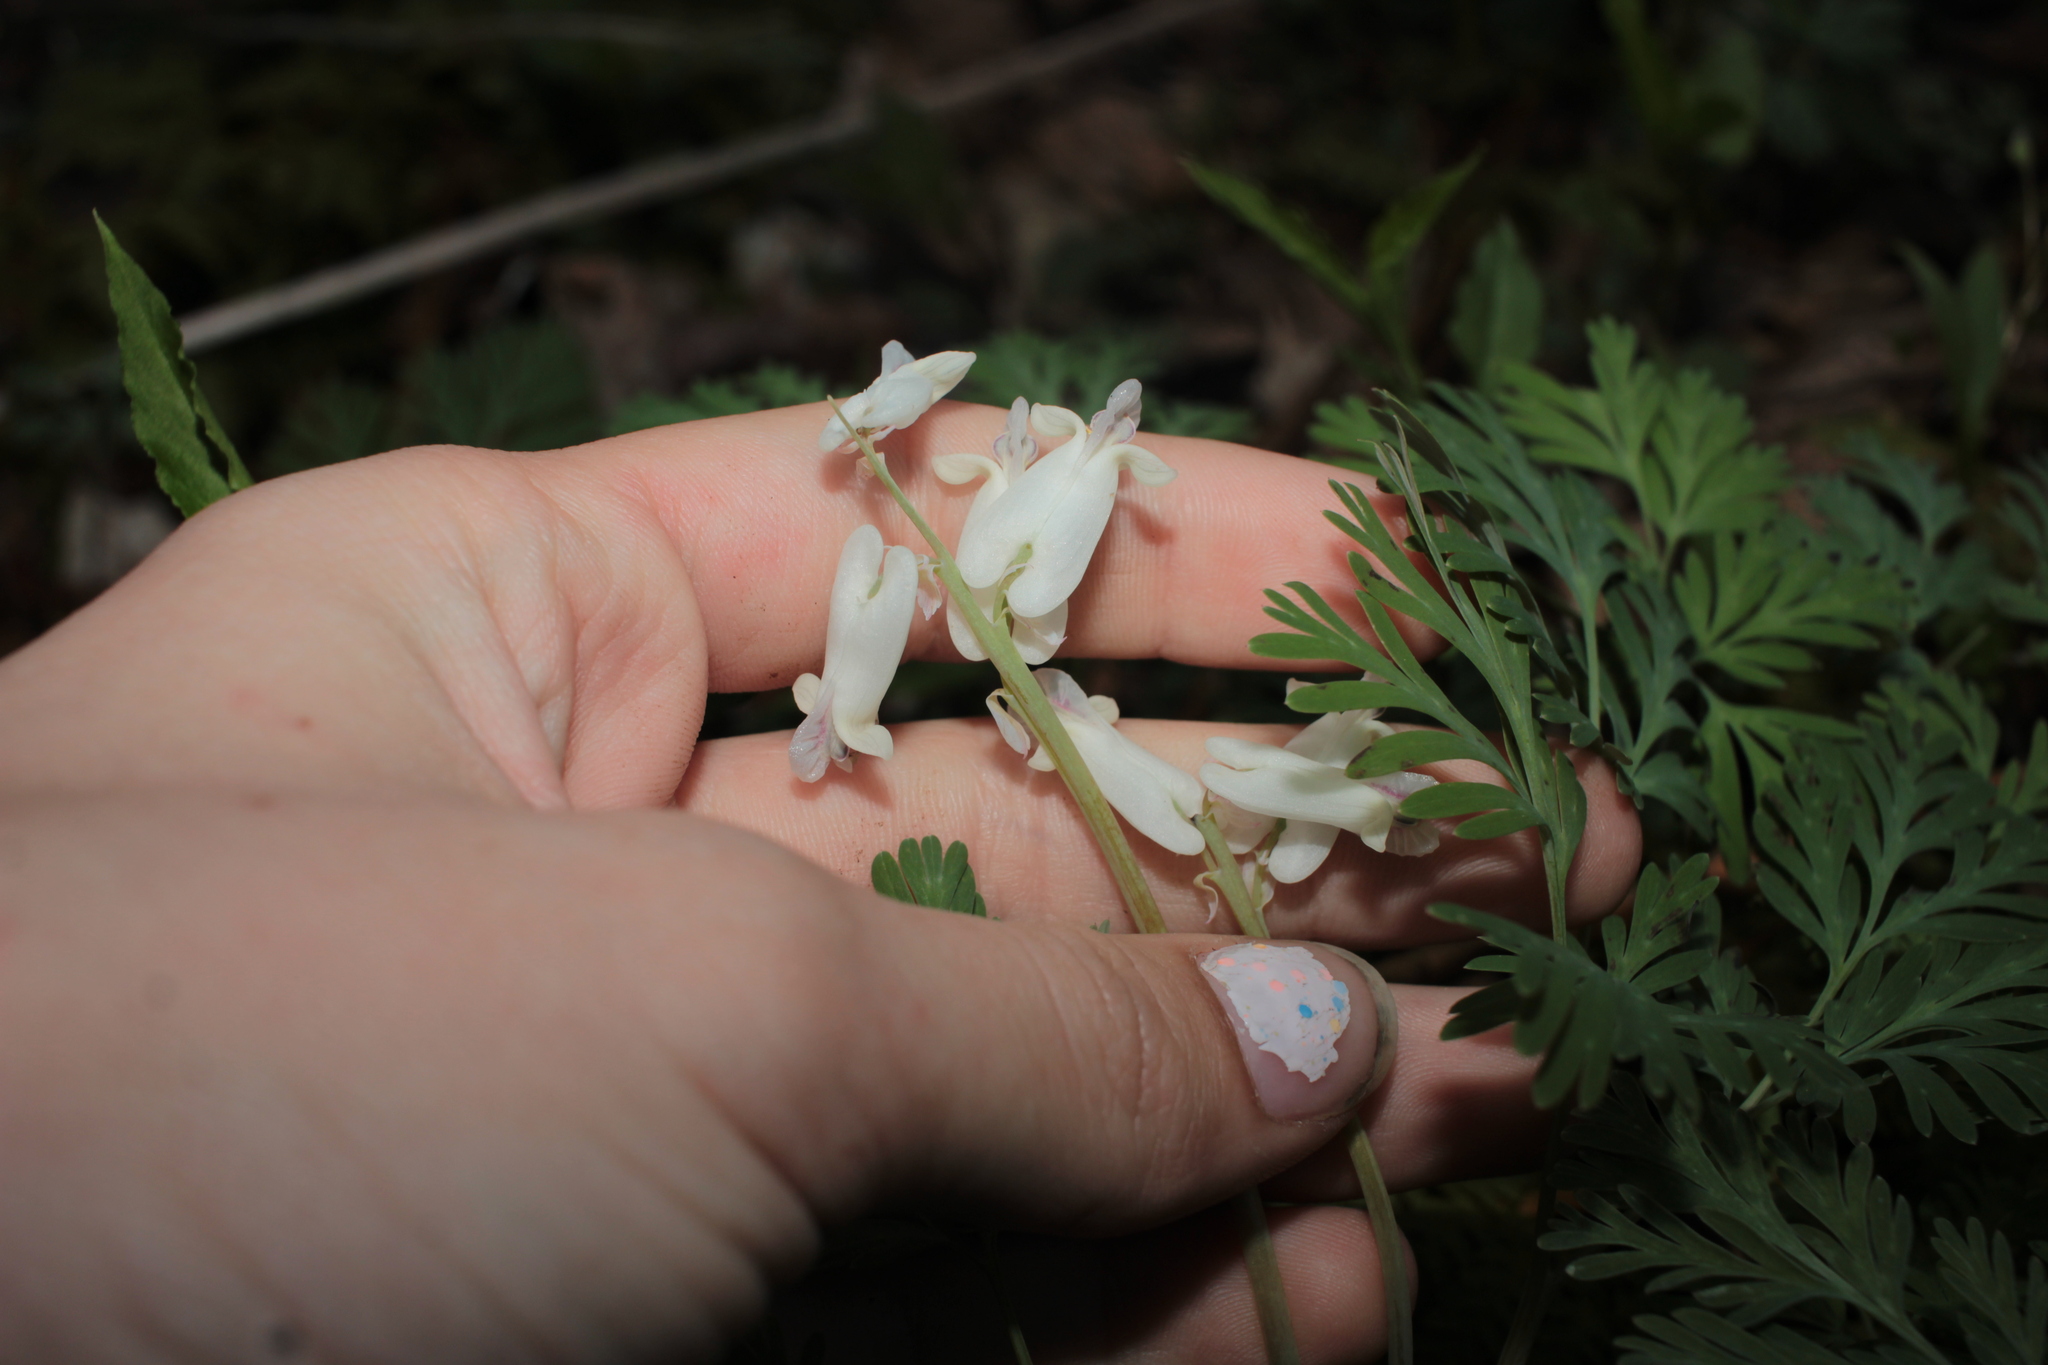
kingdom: Plantae
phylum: Tracheophyta
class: Magnoliopsida
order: Ranunculales
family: Papaveraceae
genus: Dicentra
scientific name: Dicentra canadensis
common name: Squirrel-corn
